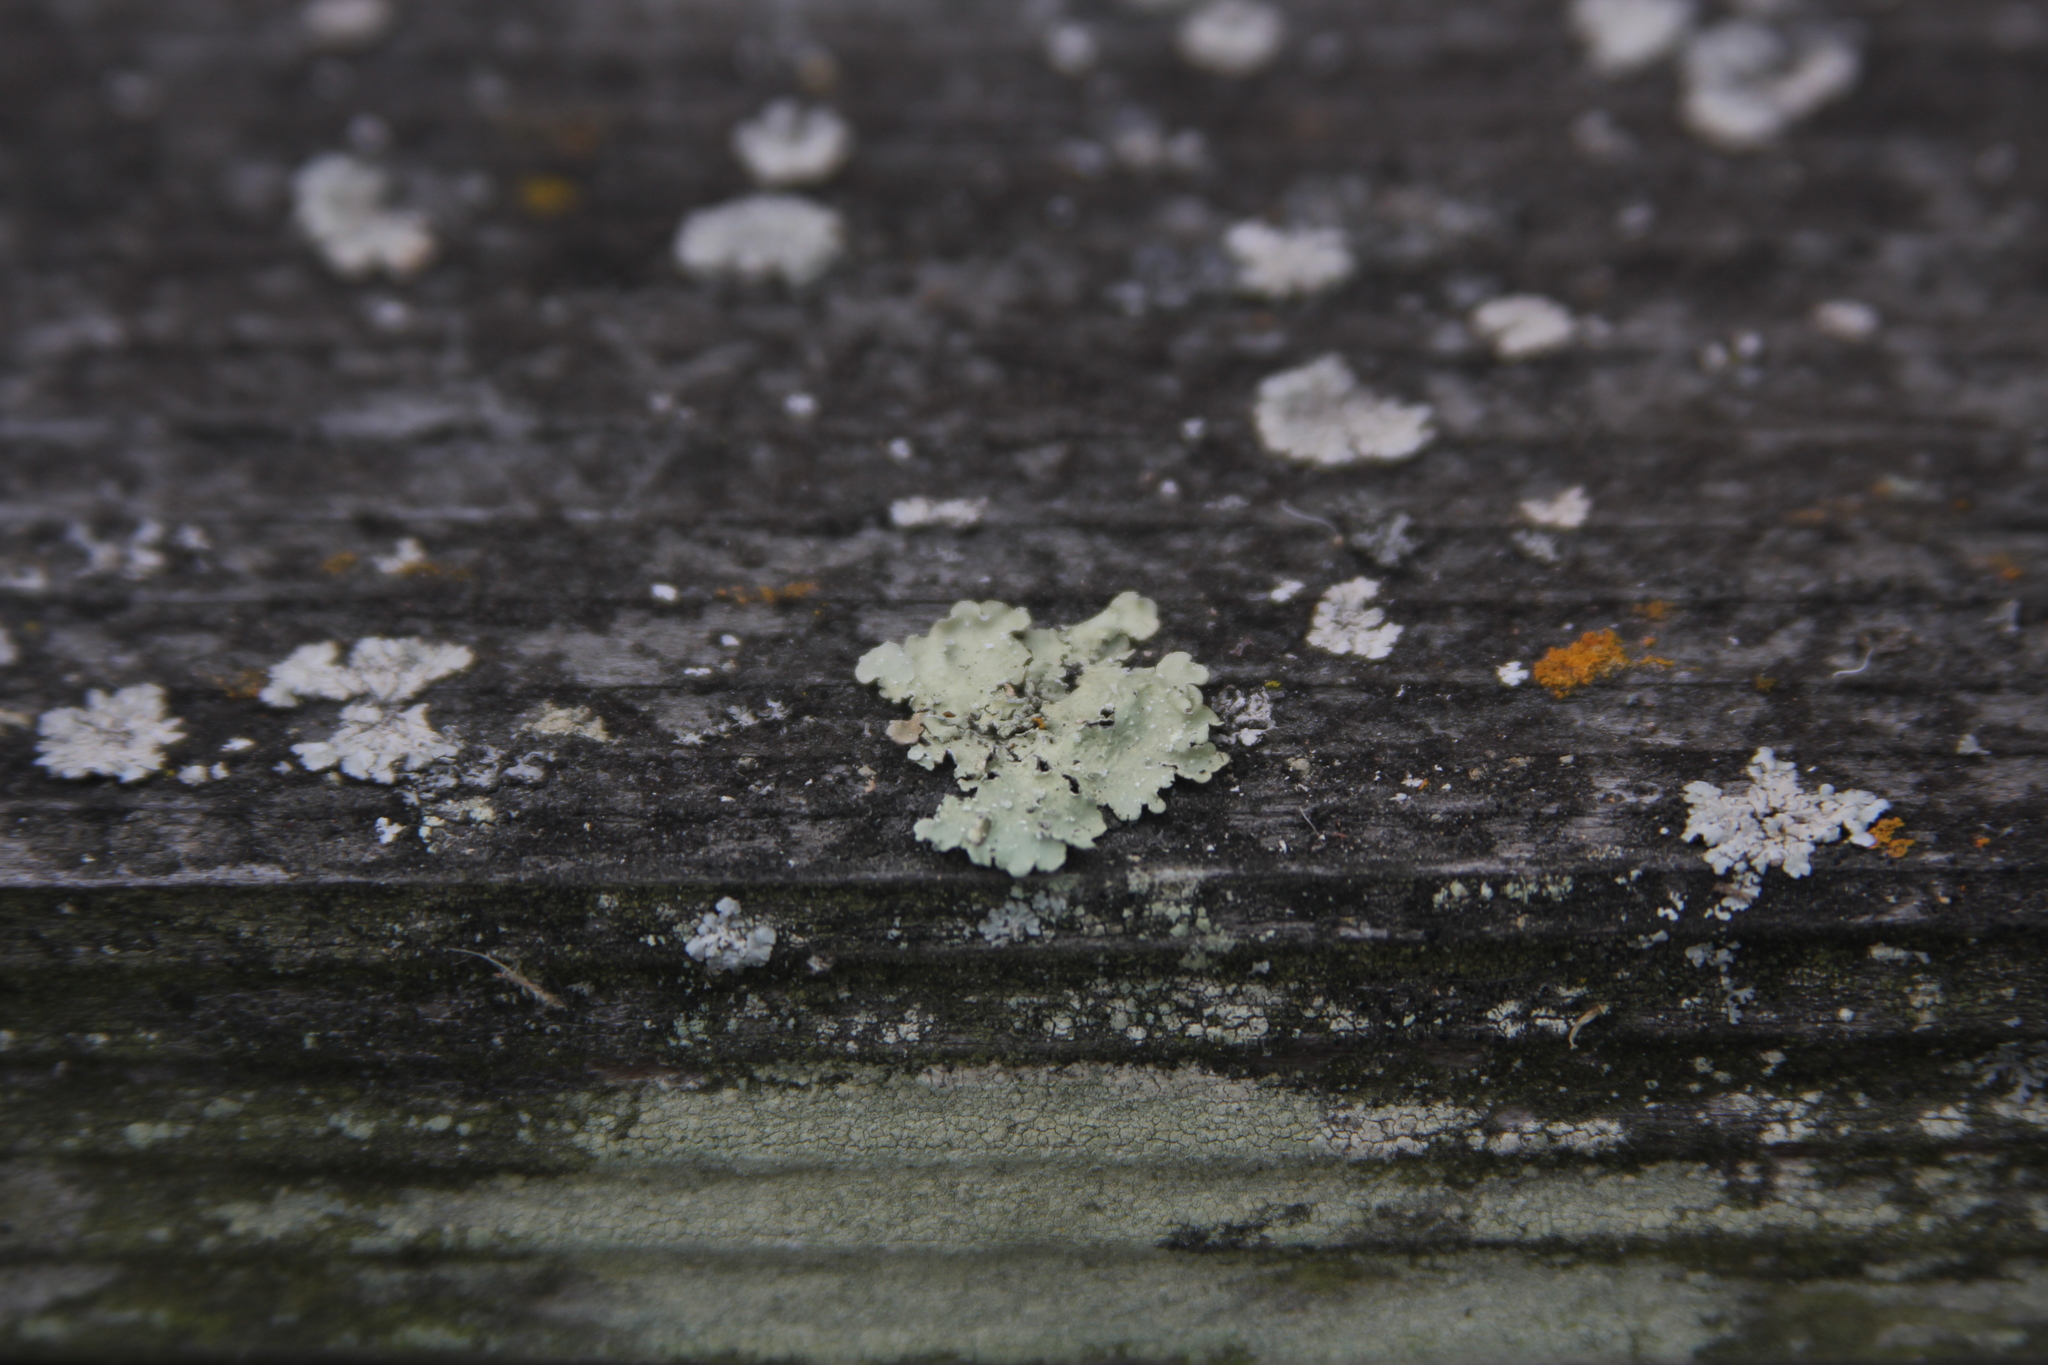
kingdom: Fungi
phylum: Ascomycota
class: Lecanoromycetes
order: Lecanorales
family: Parmeliaceae
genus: Flavopunctelia
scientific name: Flavopunctelia flaventior
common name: Speckled greenshield
